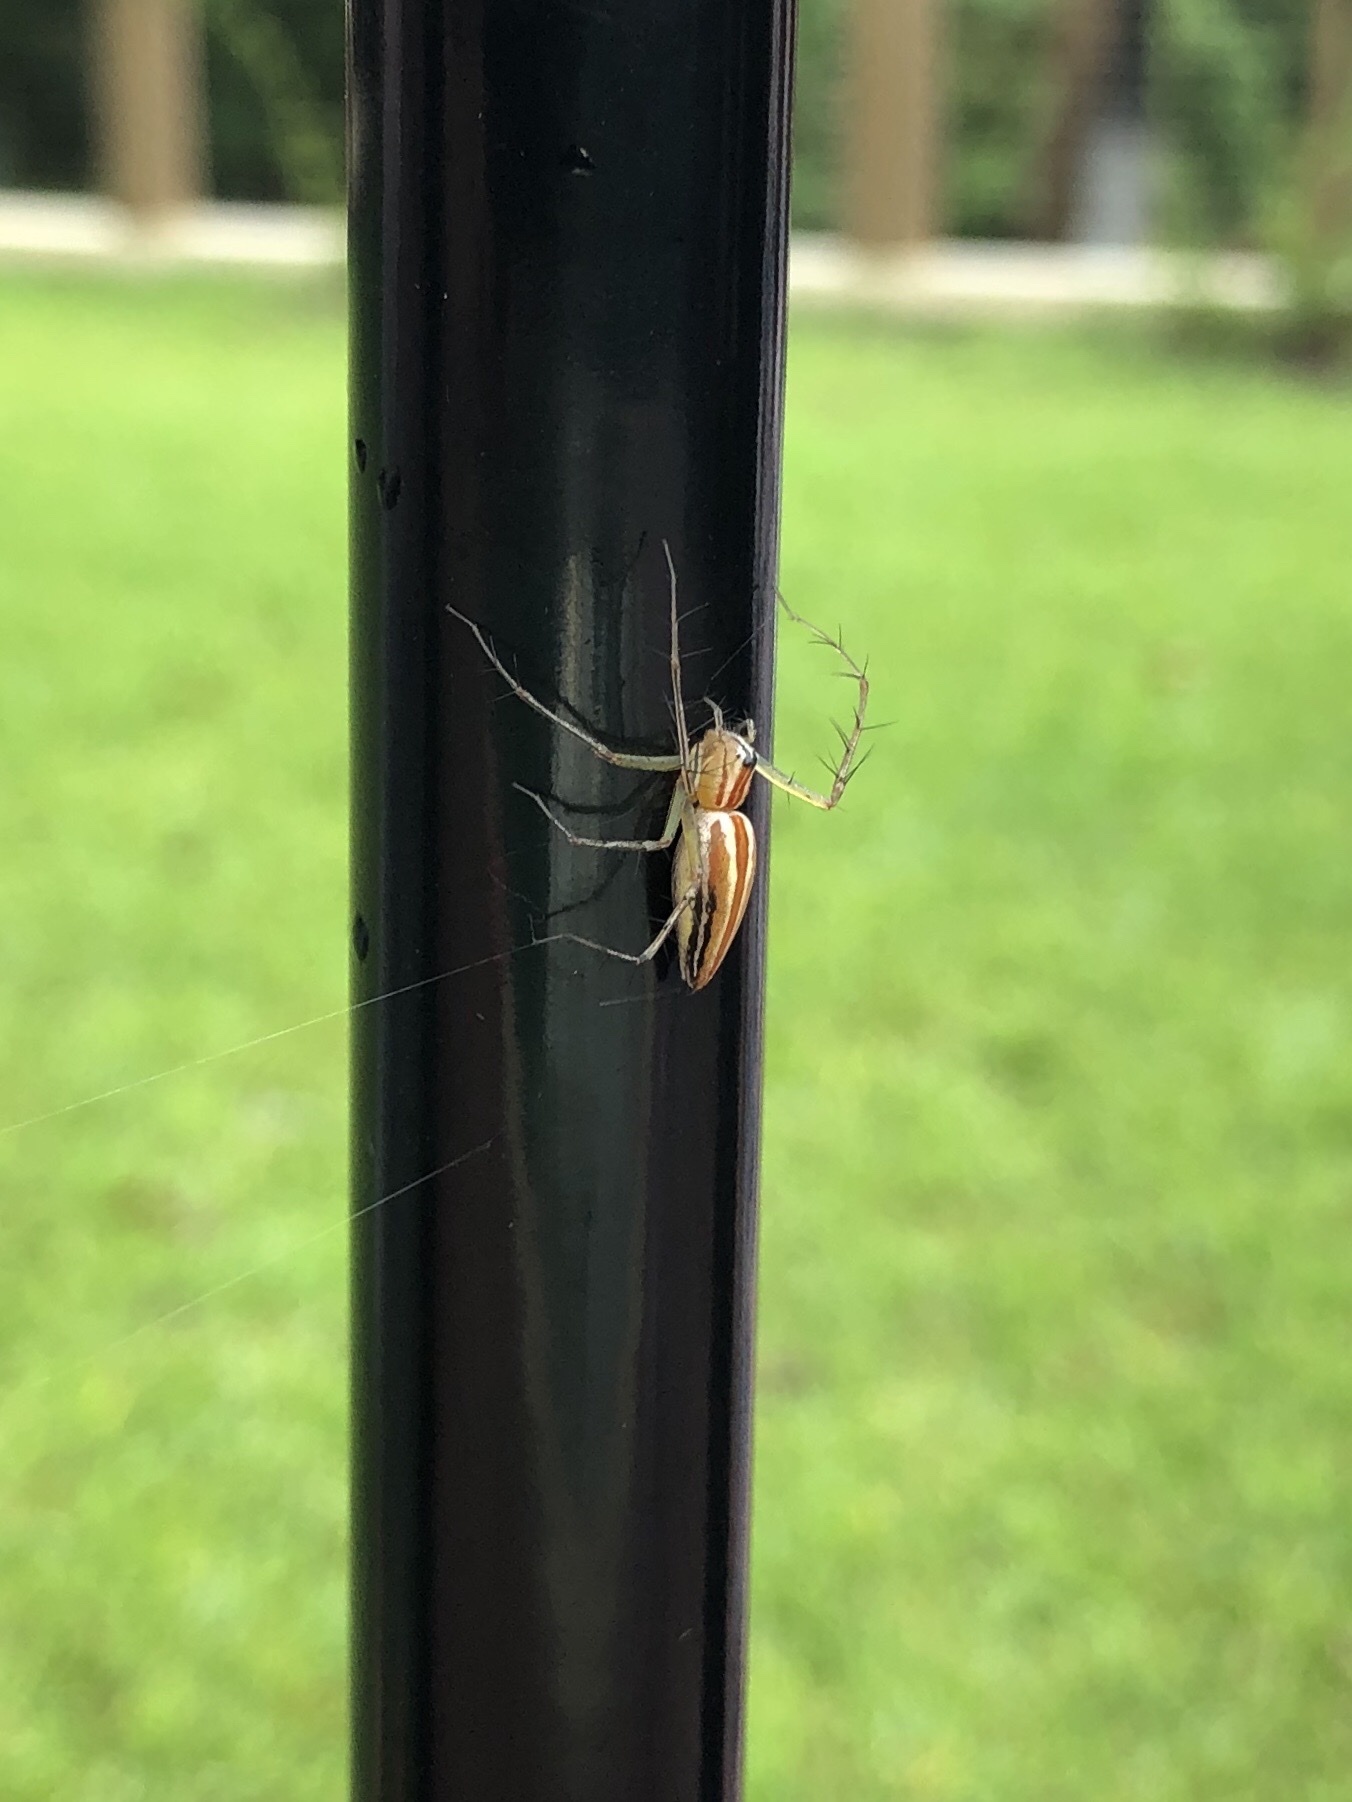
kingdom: Animalia
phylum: Arthropoda
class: Arachnida
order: Araneae
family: Oxyopidae
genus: Oxyopes
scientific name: Oxyopes macilentus
